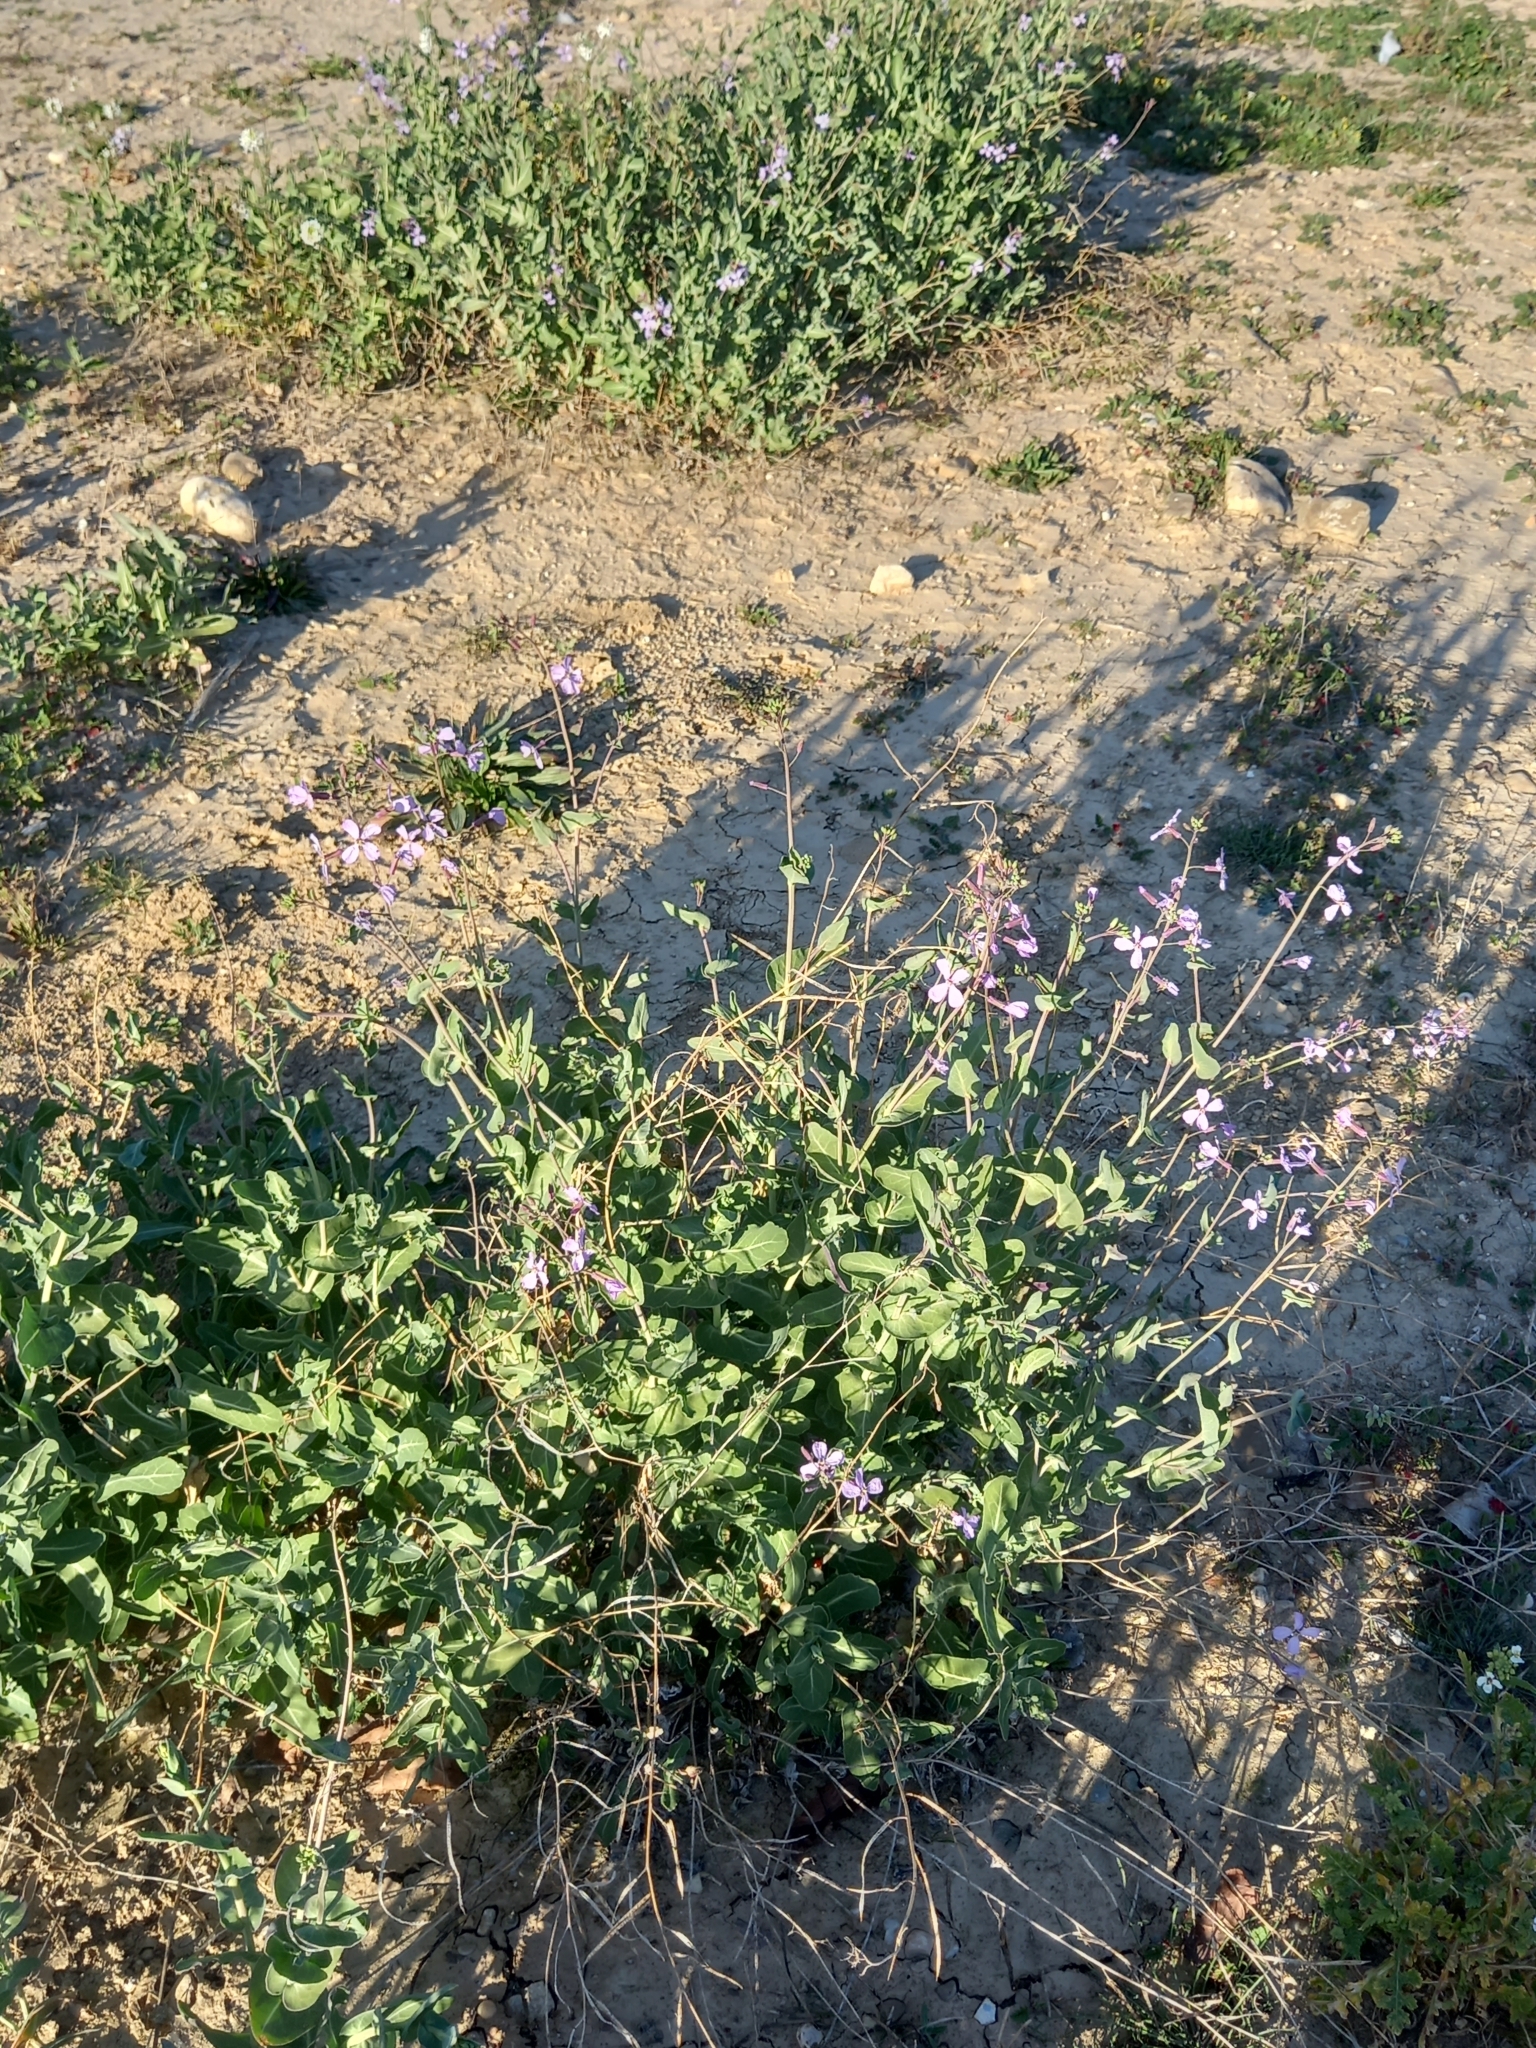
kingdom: Plantae
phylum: Tracheophyta
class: Magnoliopsida
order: Brassicales
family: Brassicaceae
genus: Moricandia
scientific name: Moricandia arvensis
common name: Purple mistress
